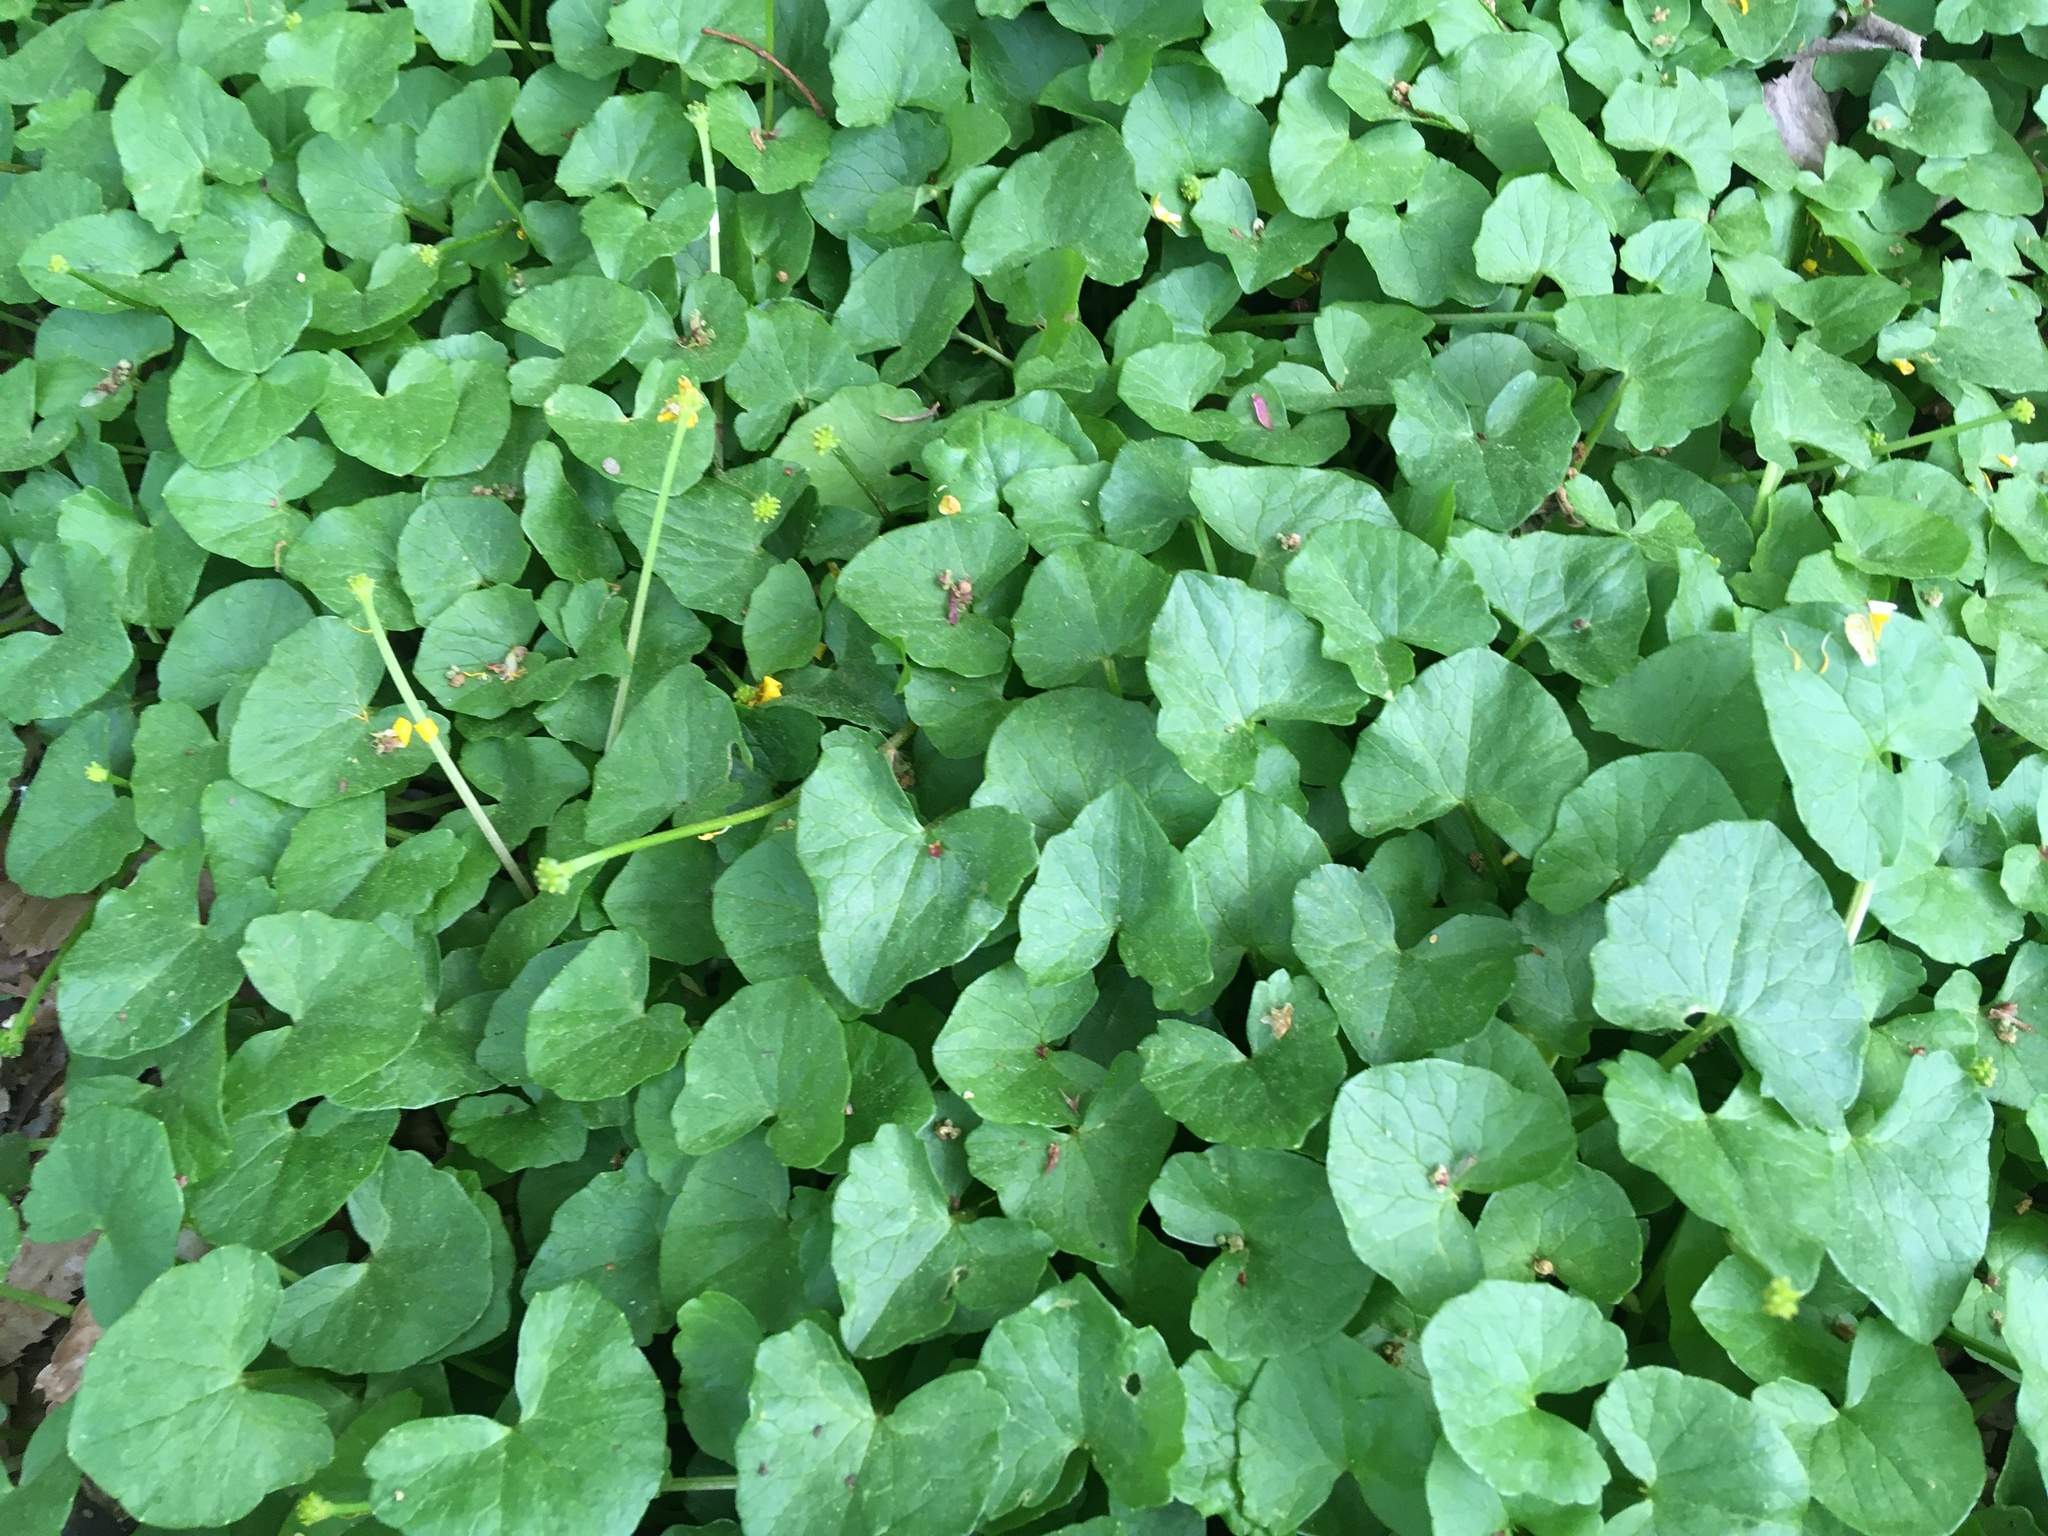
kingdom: Plantae
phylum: Tracheophyta
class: Magnoliopsida
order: Ranunculales
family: Ranunculaceae
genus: Ficaria
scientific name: Ficaria verna
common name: Lesser celandine
